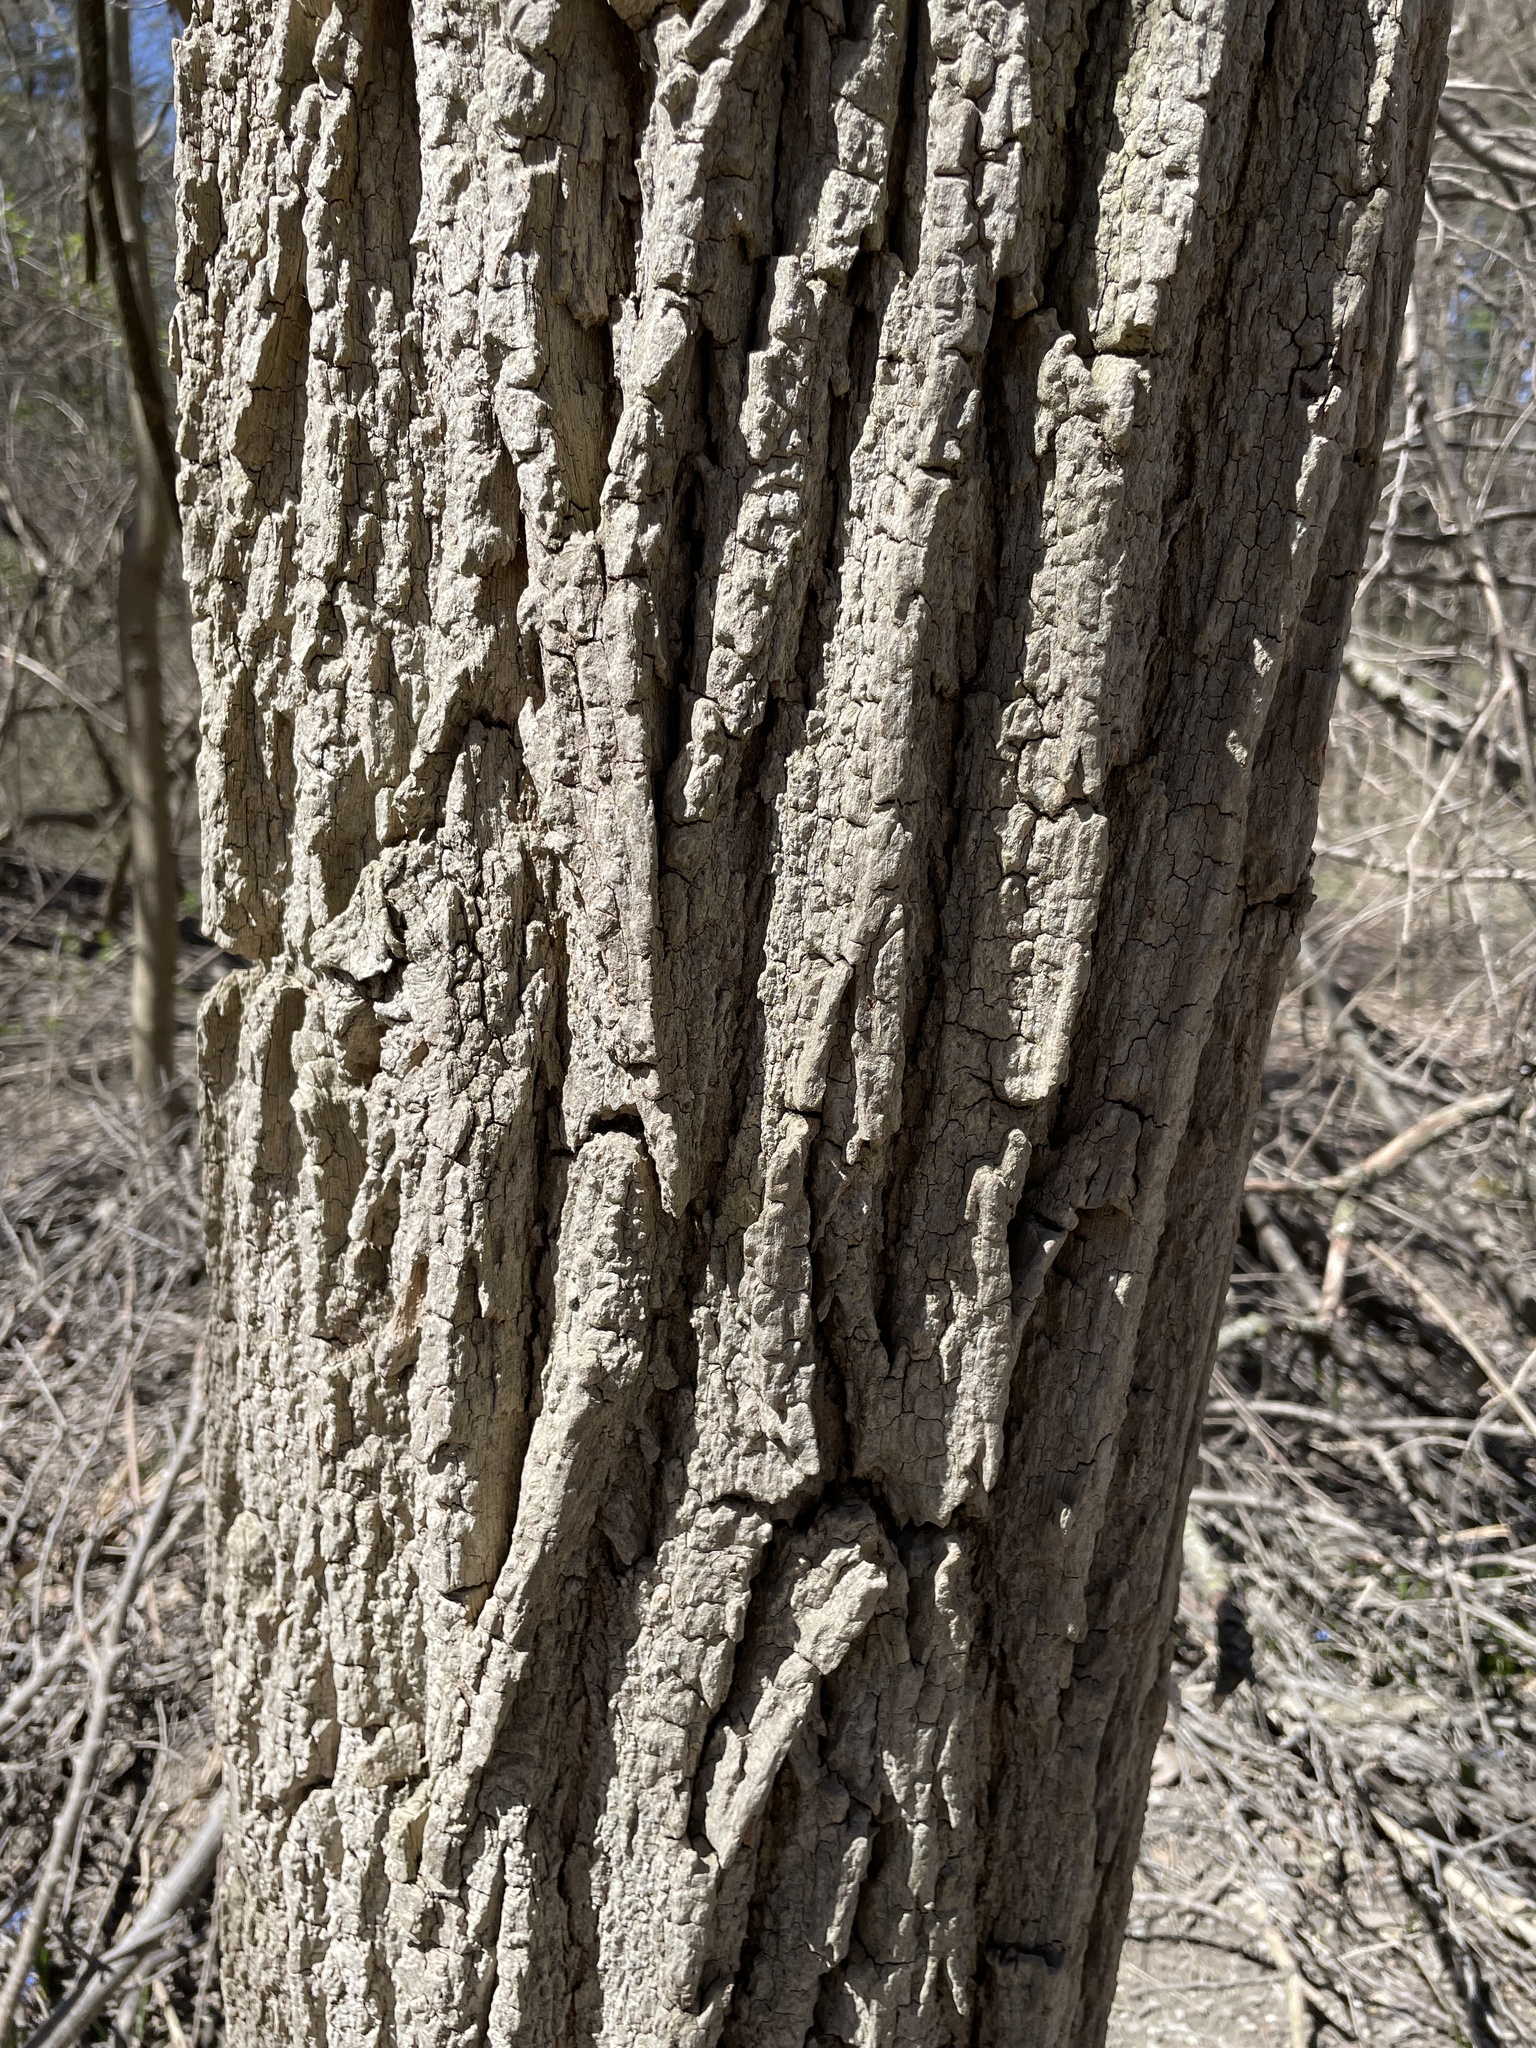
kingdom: Plantae
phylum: Tracheophyta
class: Magnoliopsida
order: Malpighiales
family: Salicaceae
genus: Populus
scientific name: Populus deltoides
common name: Eastern cottonwood
